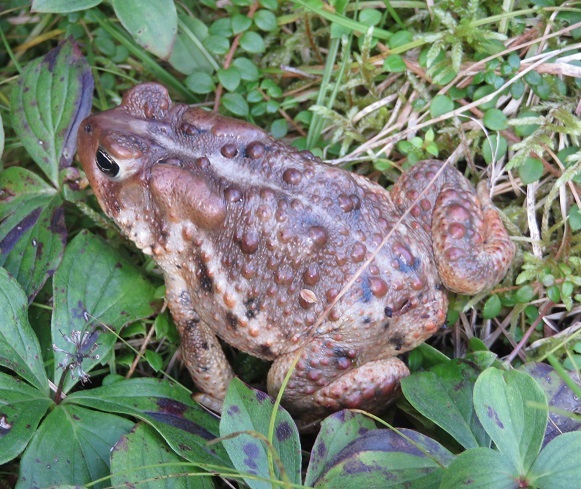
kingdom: Animalia
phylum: Chordata
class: Amphibia
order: Anura
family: Bufonidae
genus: Anaxyrus
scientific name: Anaxyrus americanus
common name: American toad
